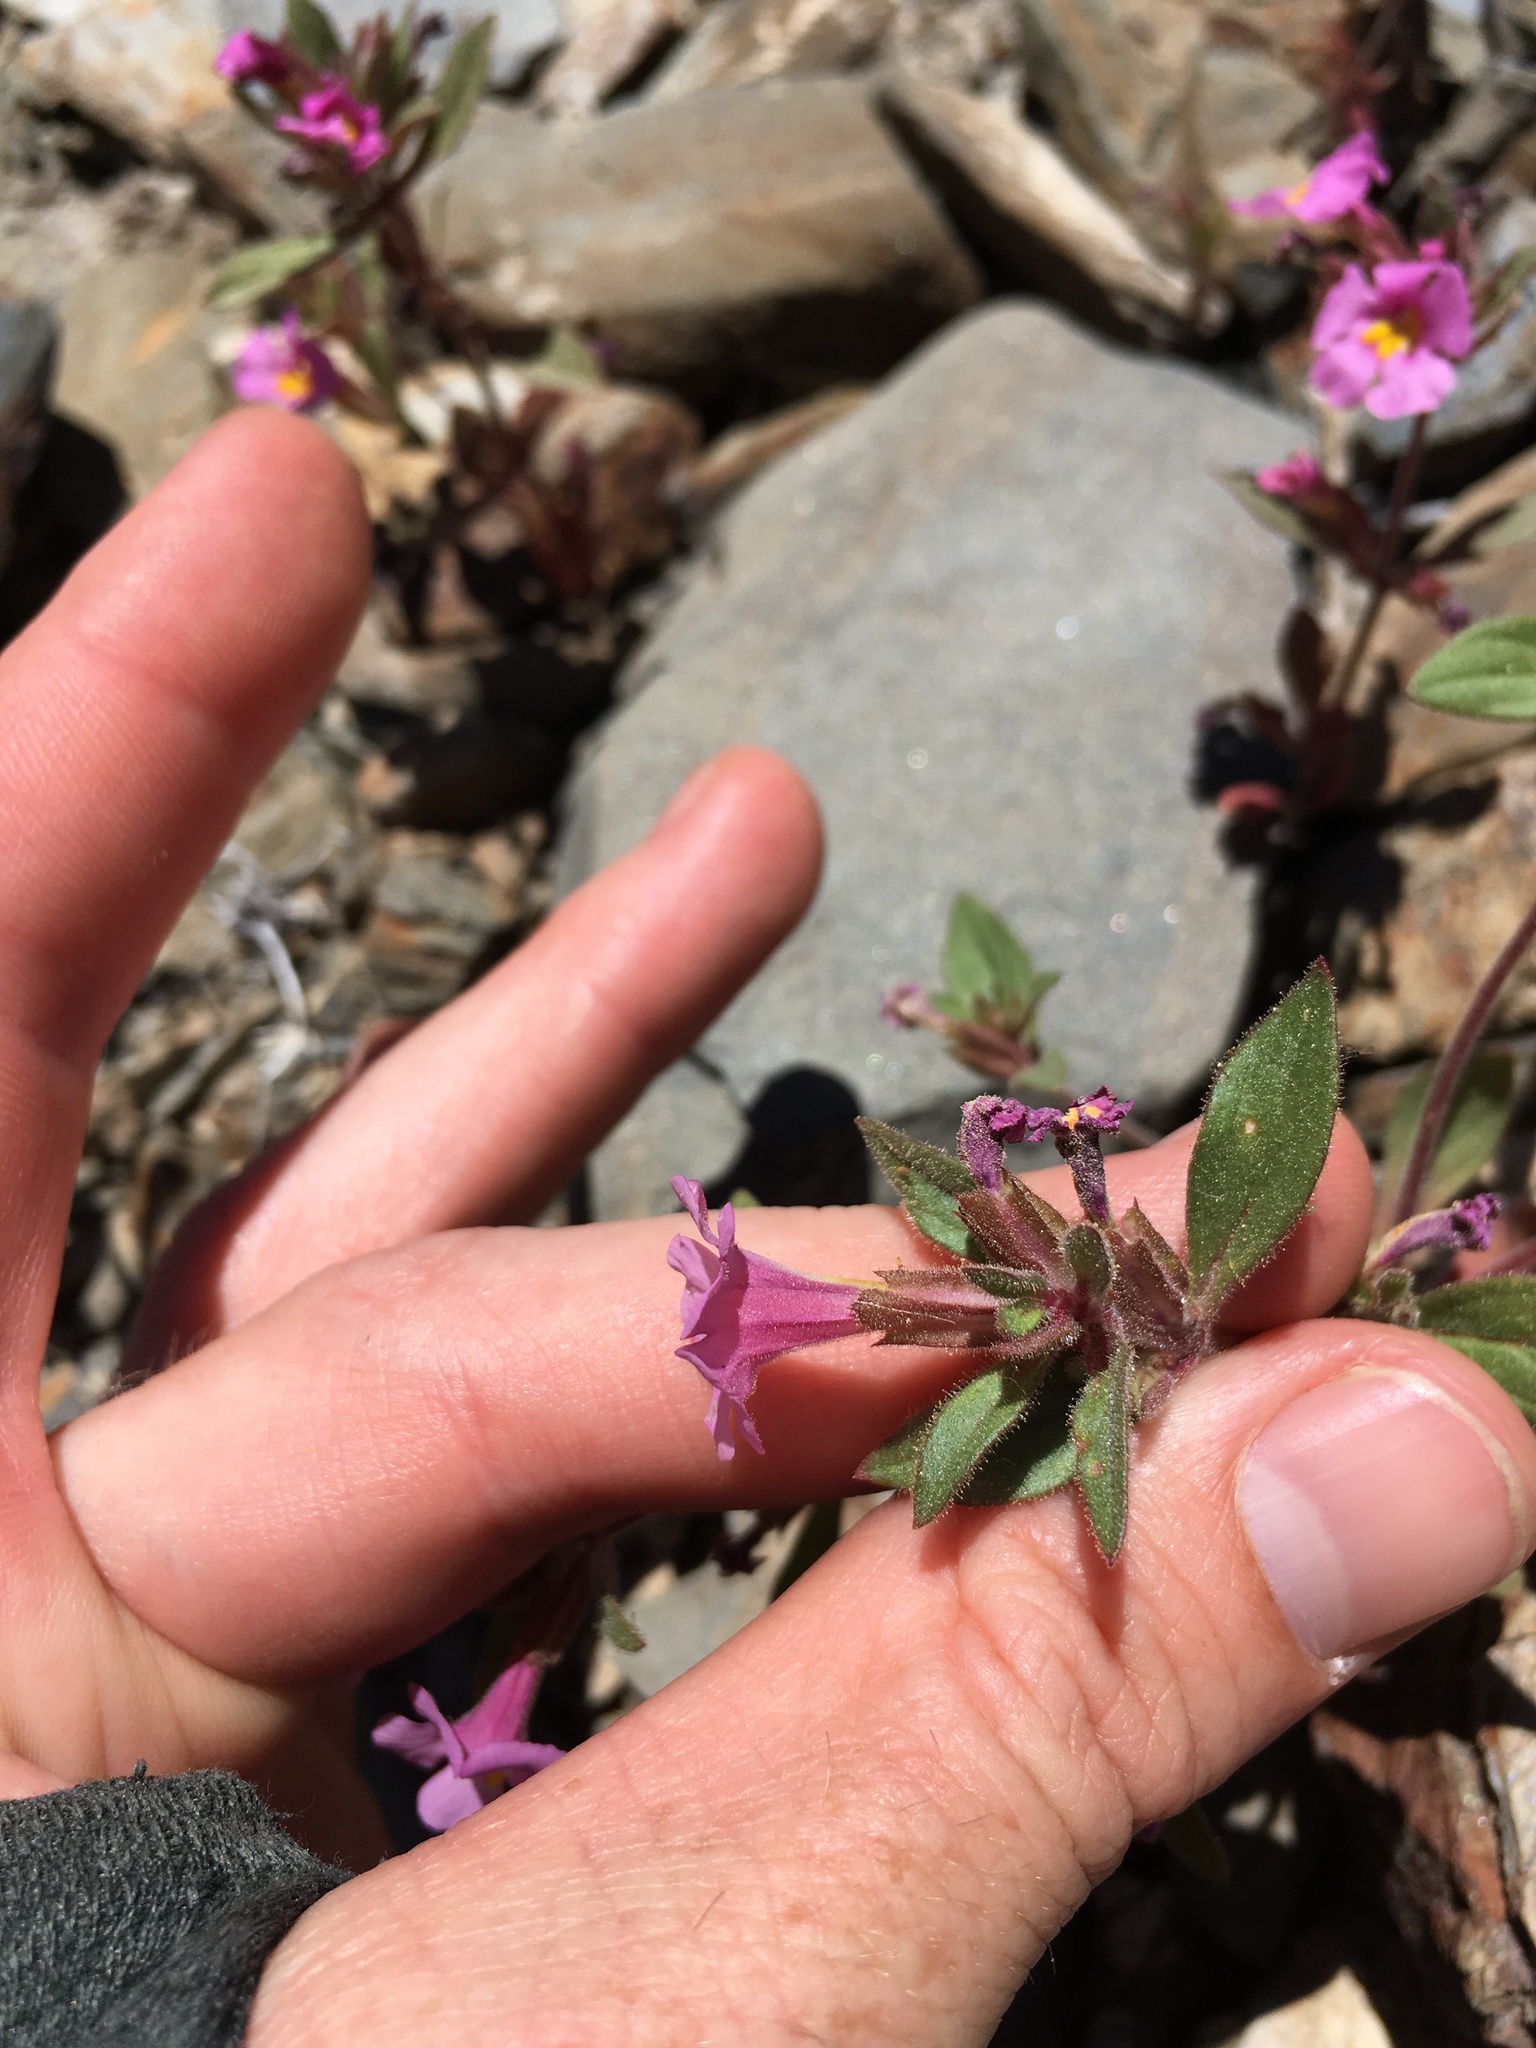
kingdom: Plantae
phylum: Tracheophyta
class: Magnoliopsida
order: Lamiales
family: Phrymaceae
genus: Diplacus
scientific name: Diplacus parryi
